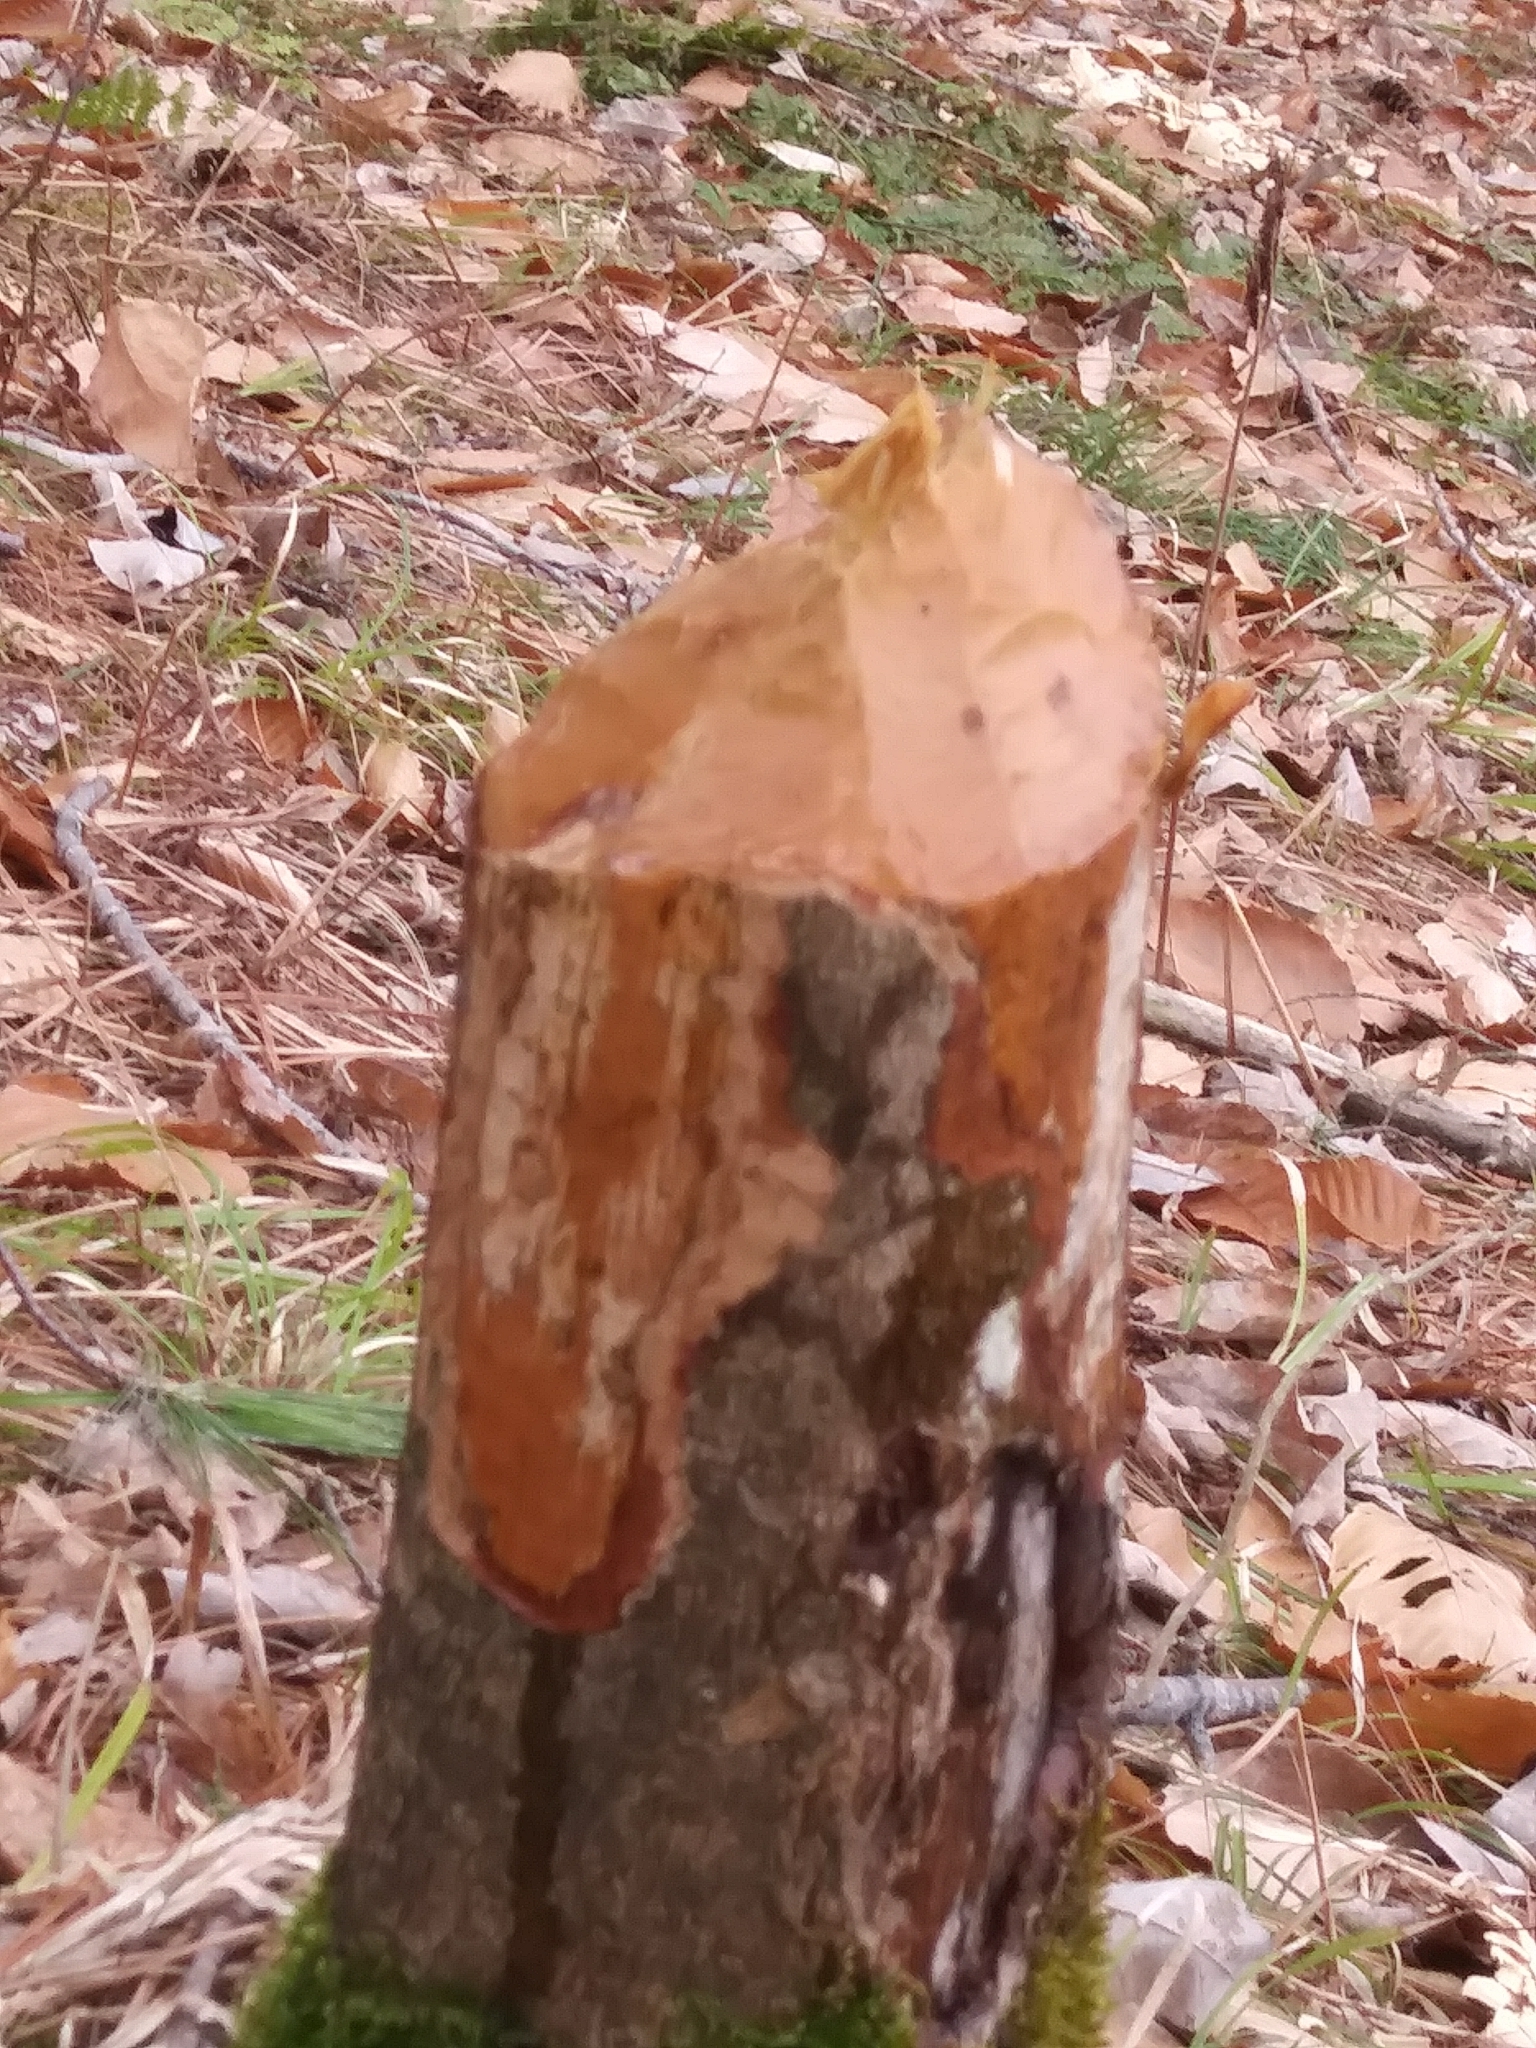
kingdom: Animalia
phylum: Chordata
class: Mammalia
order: Rodentia
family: Castoridae
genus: Castor
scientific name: Castor canadensis
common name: American beaver
